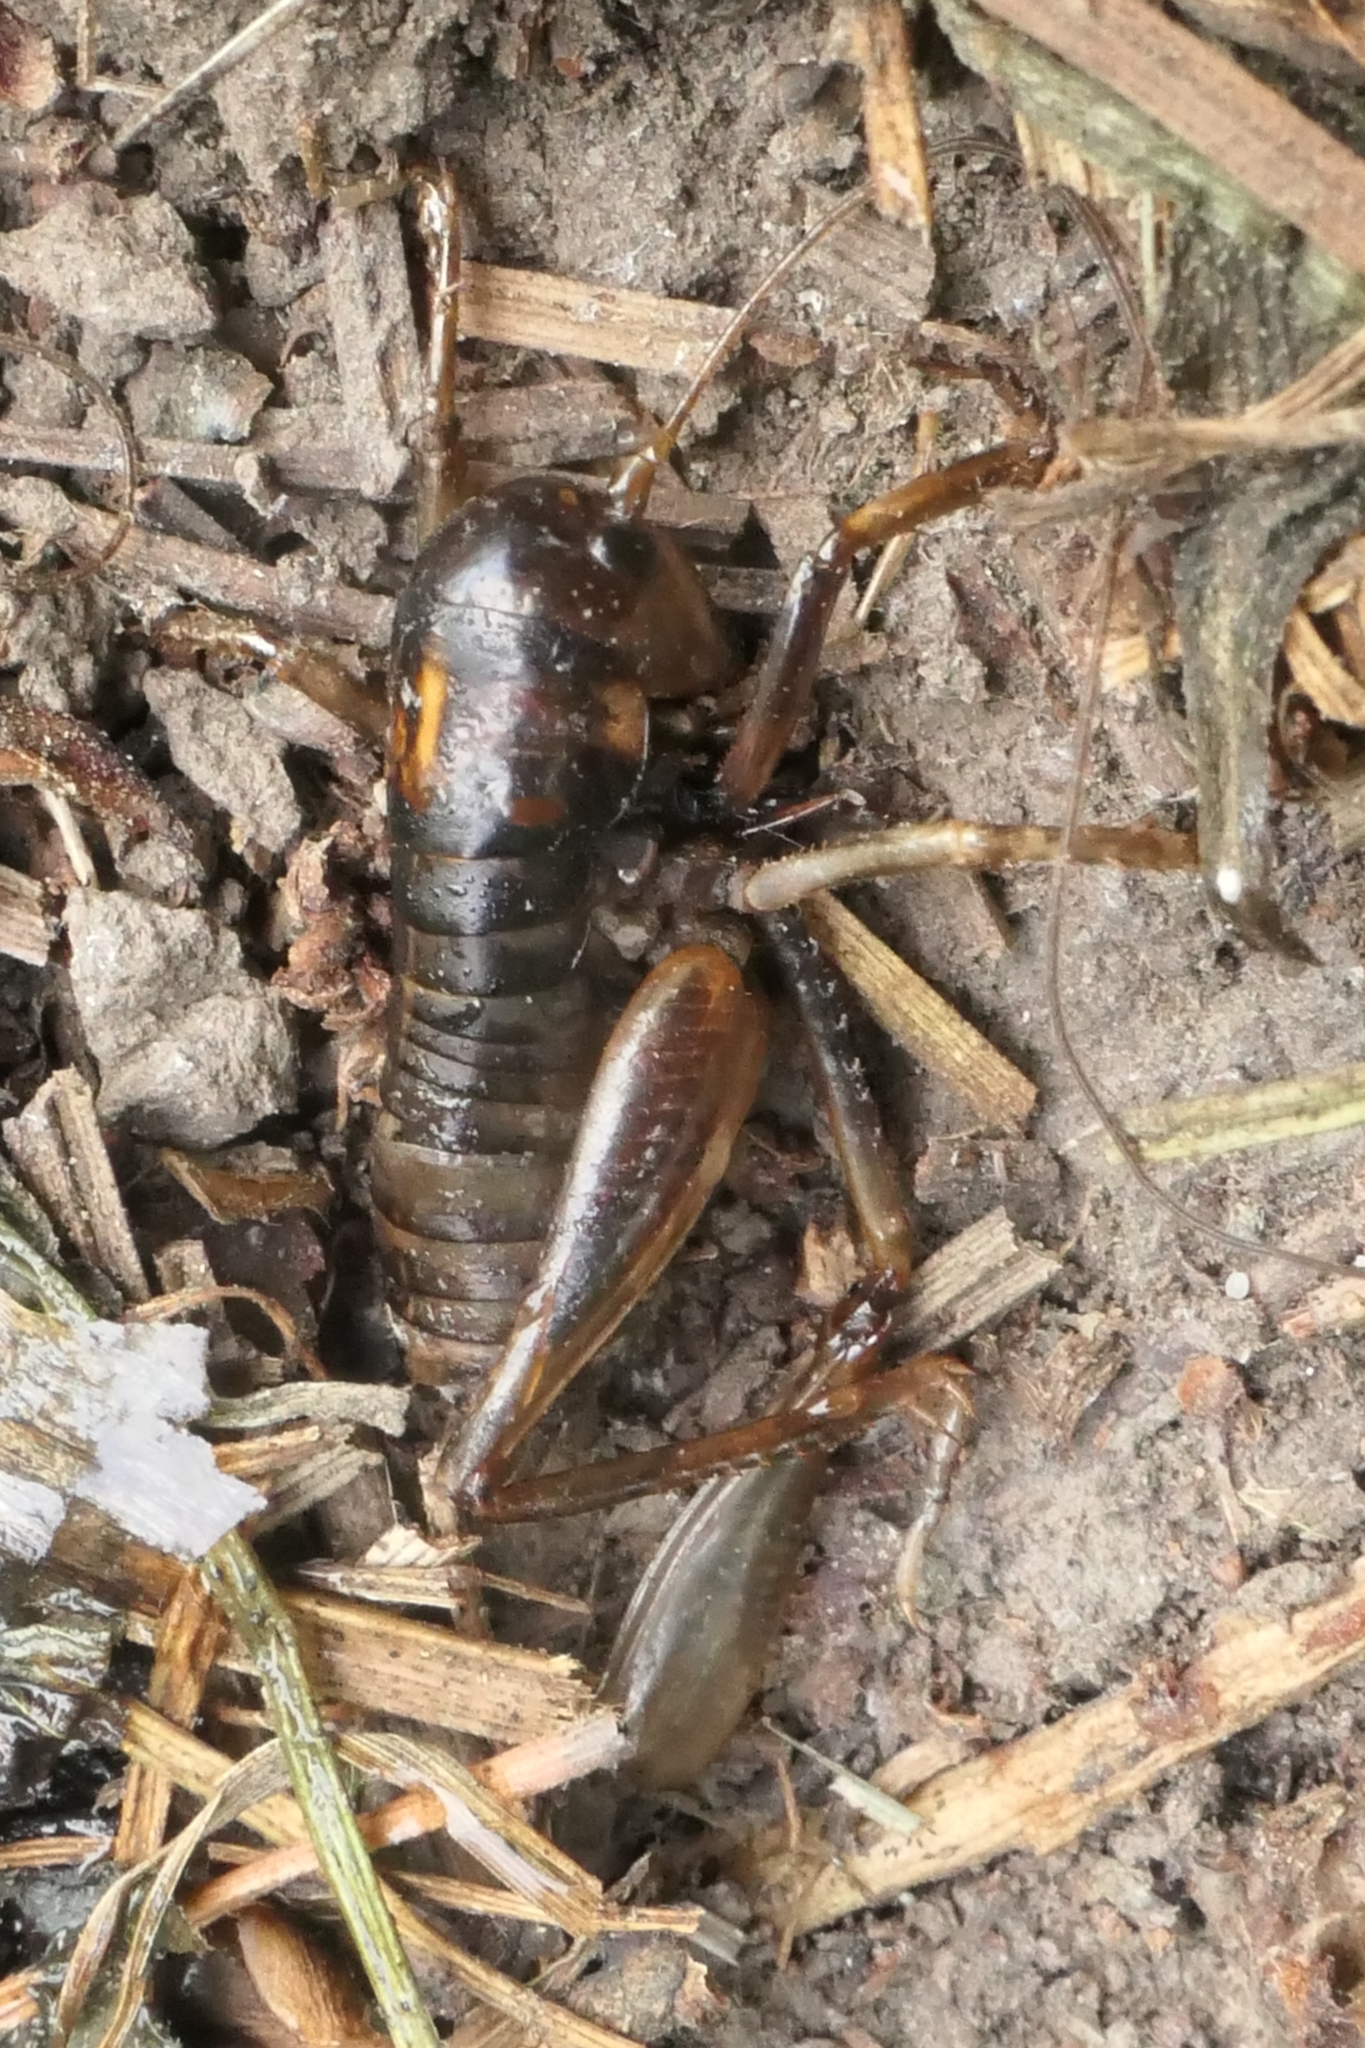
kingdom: Animalia
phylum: Arthropoda
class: Insecta
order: Orthoptera
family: Anostostomatidae
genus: Hemiandrus
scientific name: Hemiandrus celaeno
